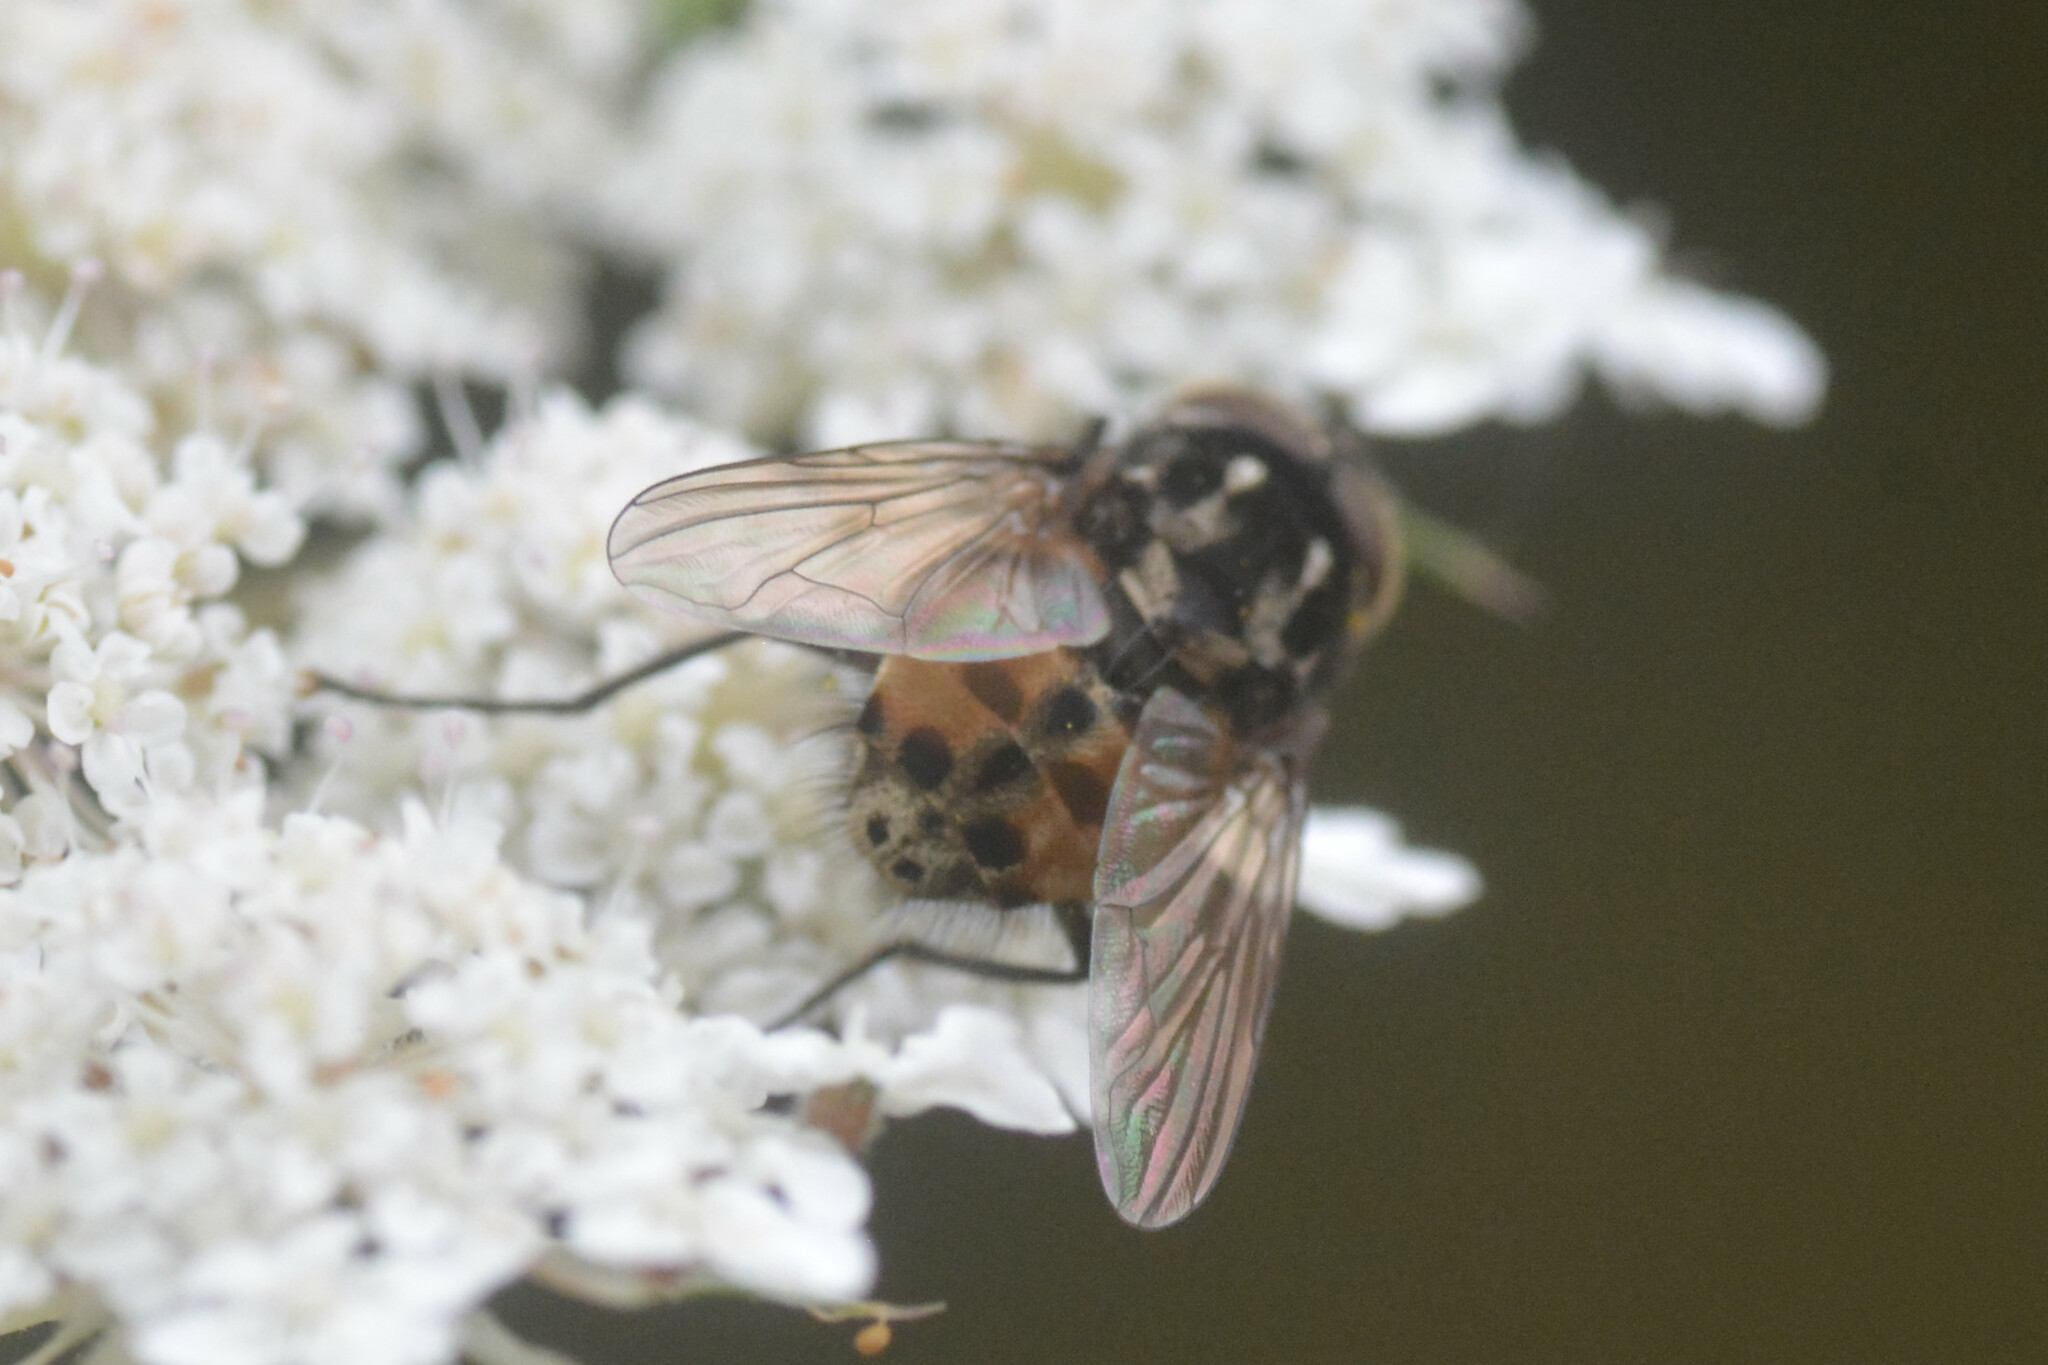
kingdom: Animalia
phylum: Arthropoda
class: Insecta
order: Diptera
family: Muscidae
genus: Graphomya
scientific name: Graphomya maculata
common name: Muscid fly
